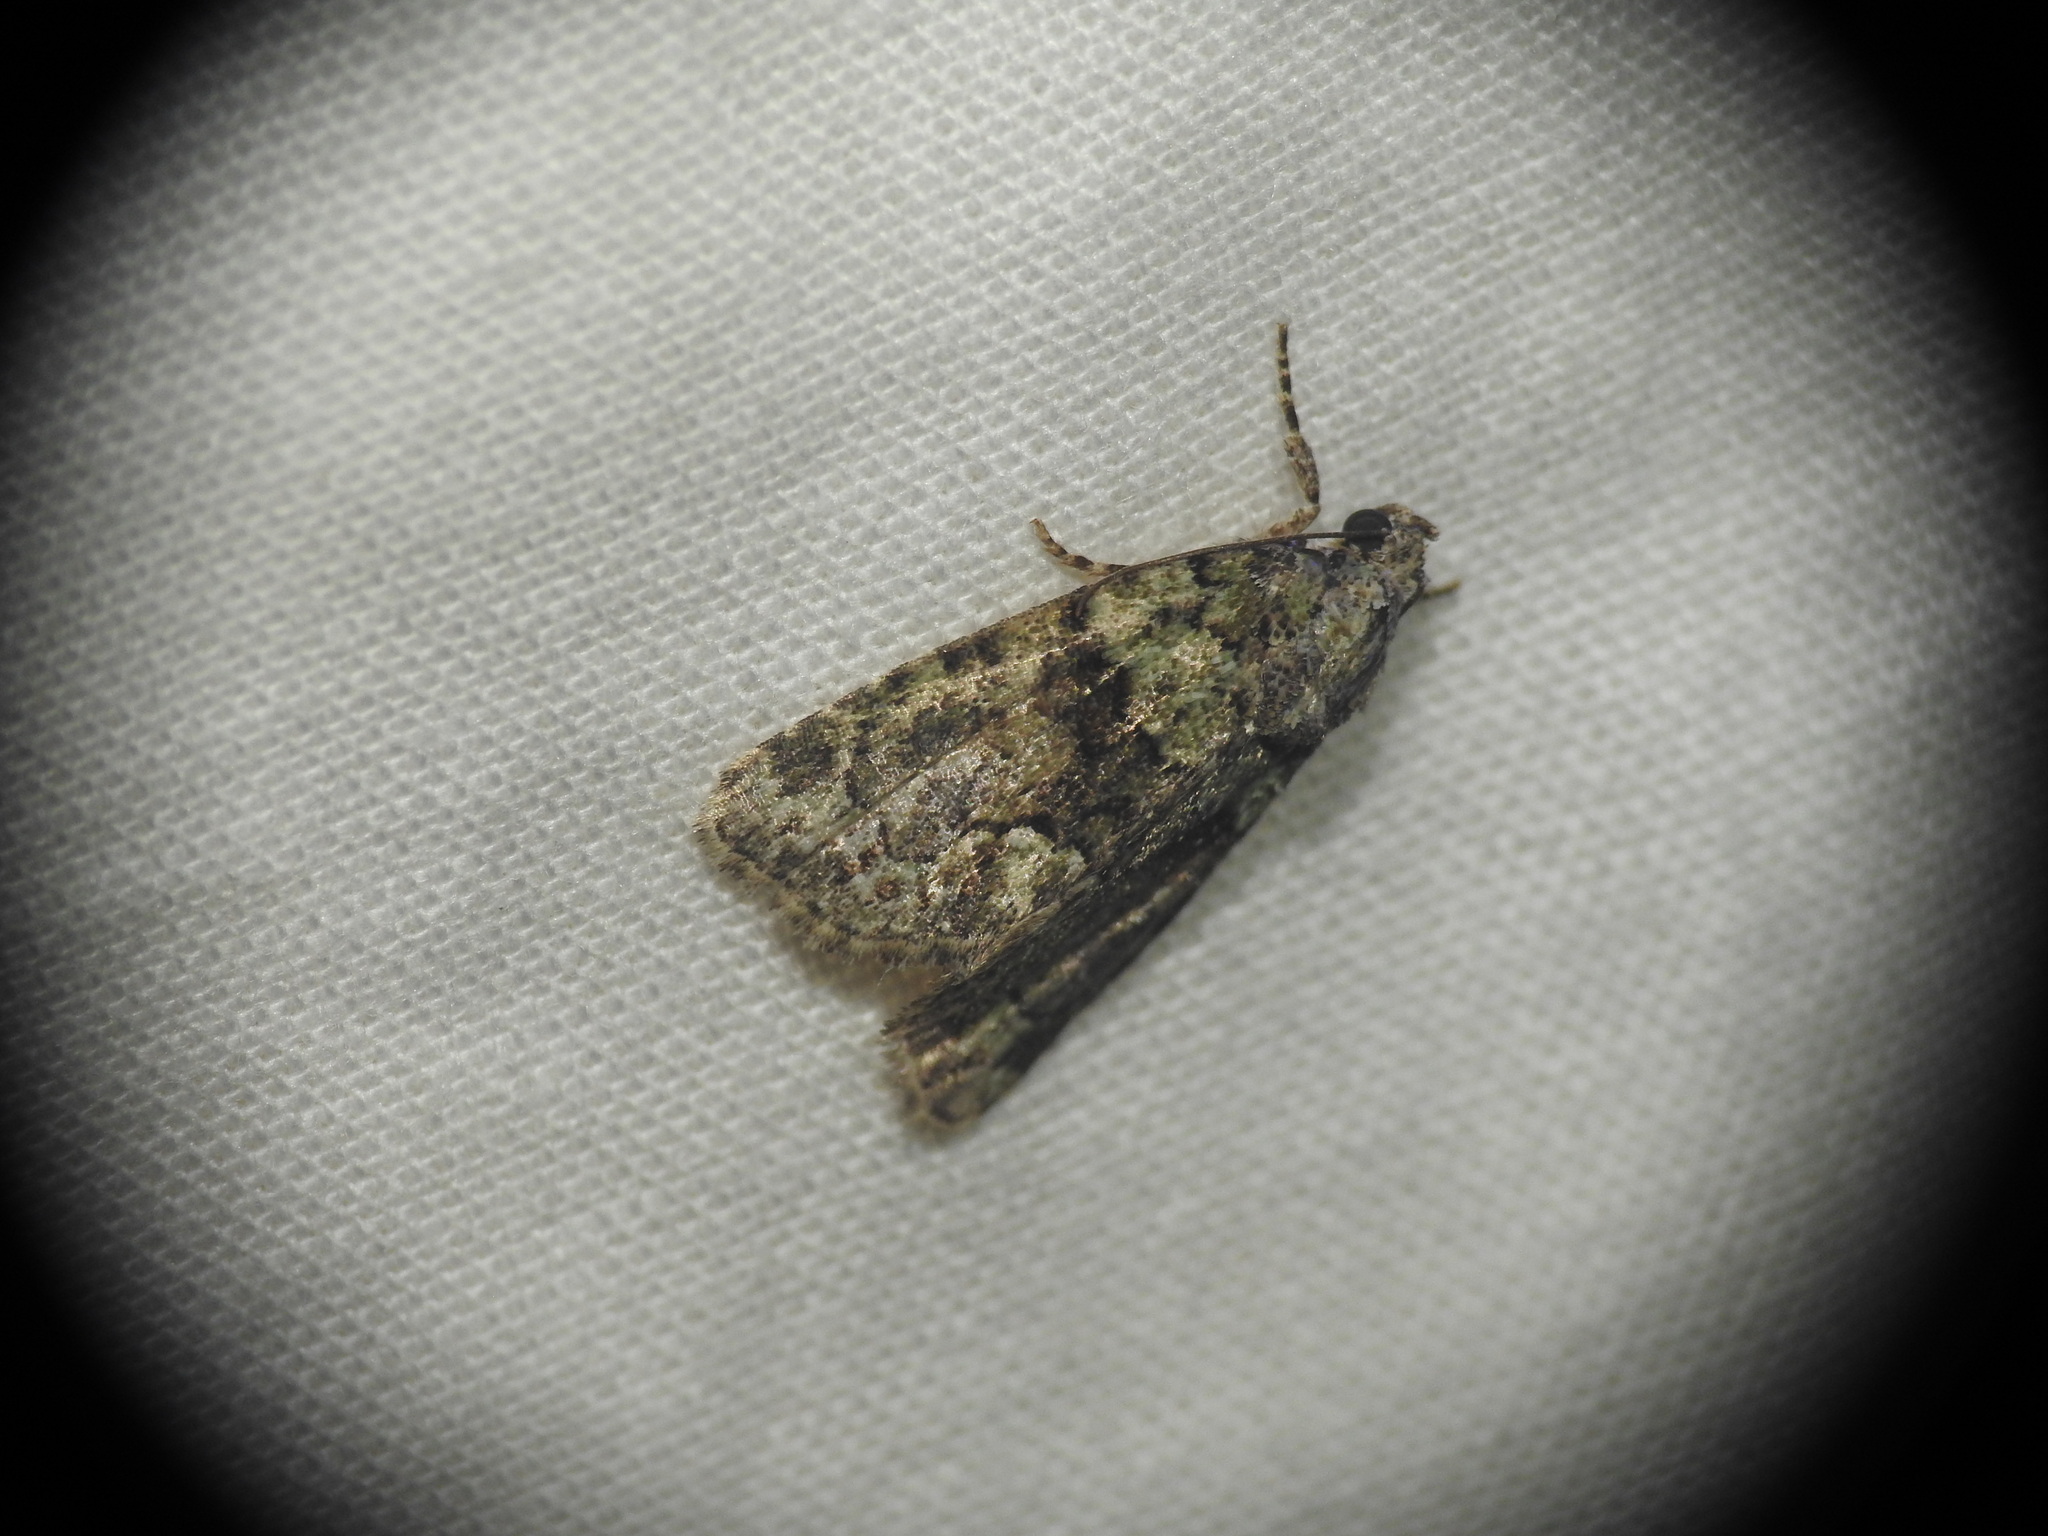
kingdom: Animalia
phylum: Arthropoda
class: Insecta
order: Lepidoptera
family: Noctuidae
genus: Cryphia
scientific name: Cryphia algae
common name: Tree-lichen beauty
